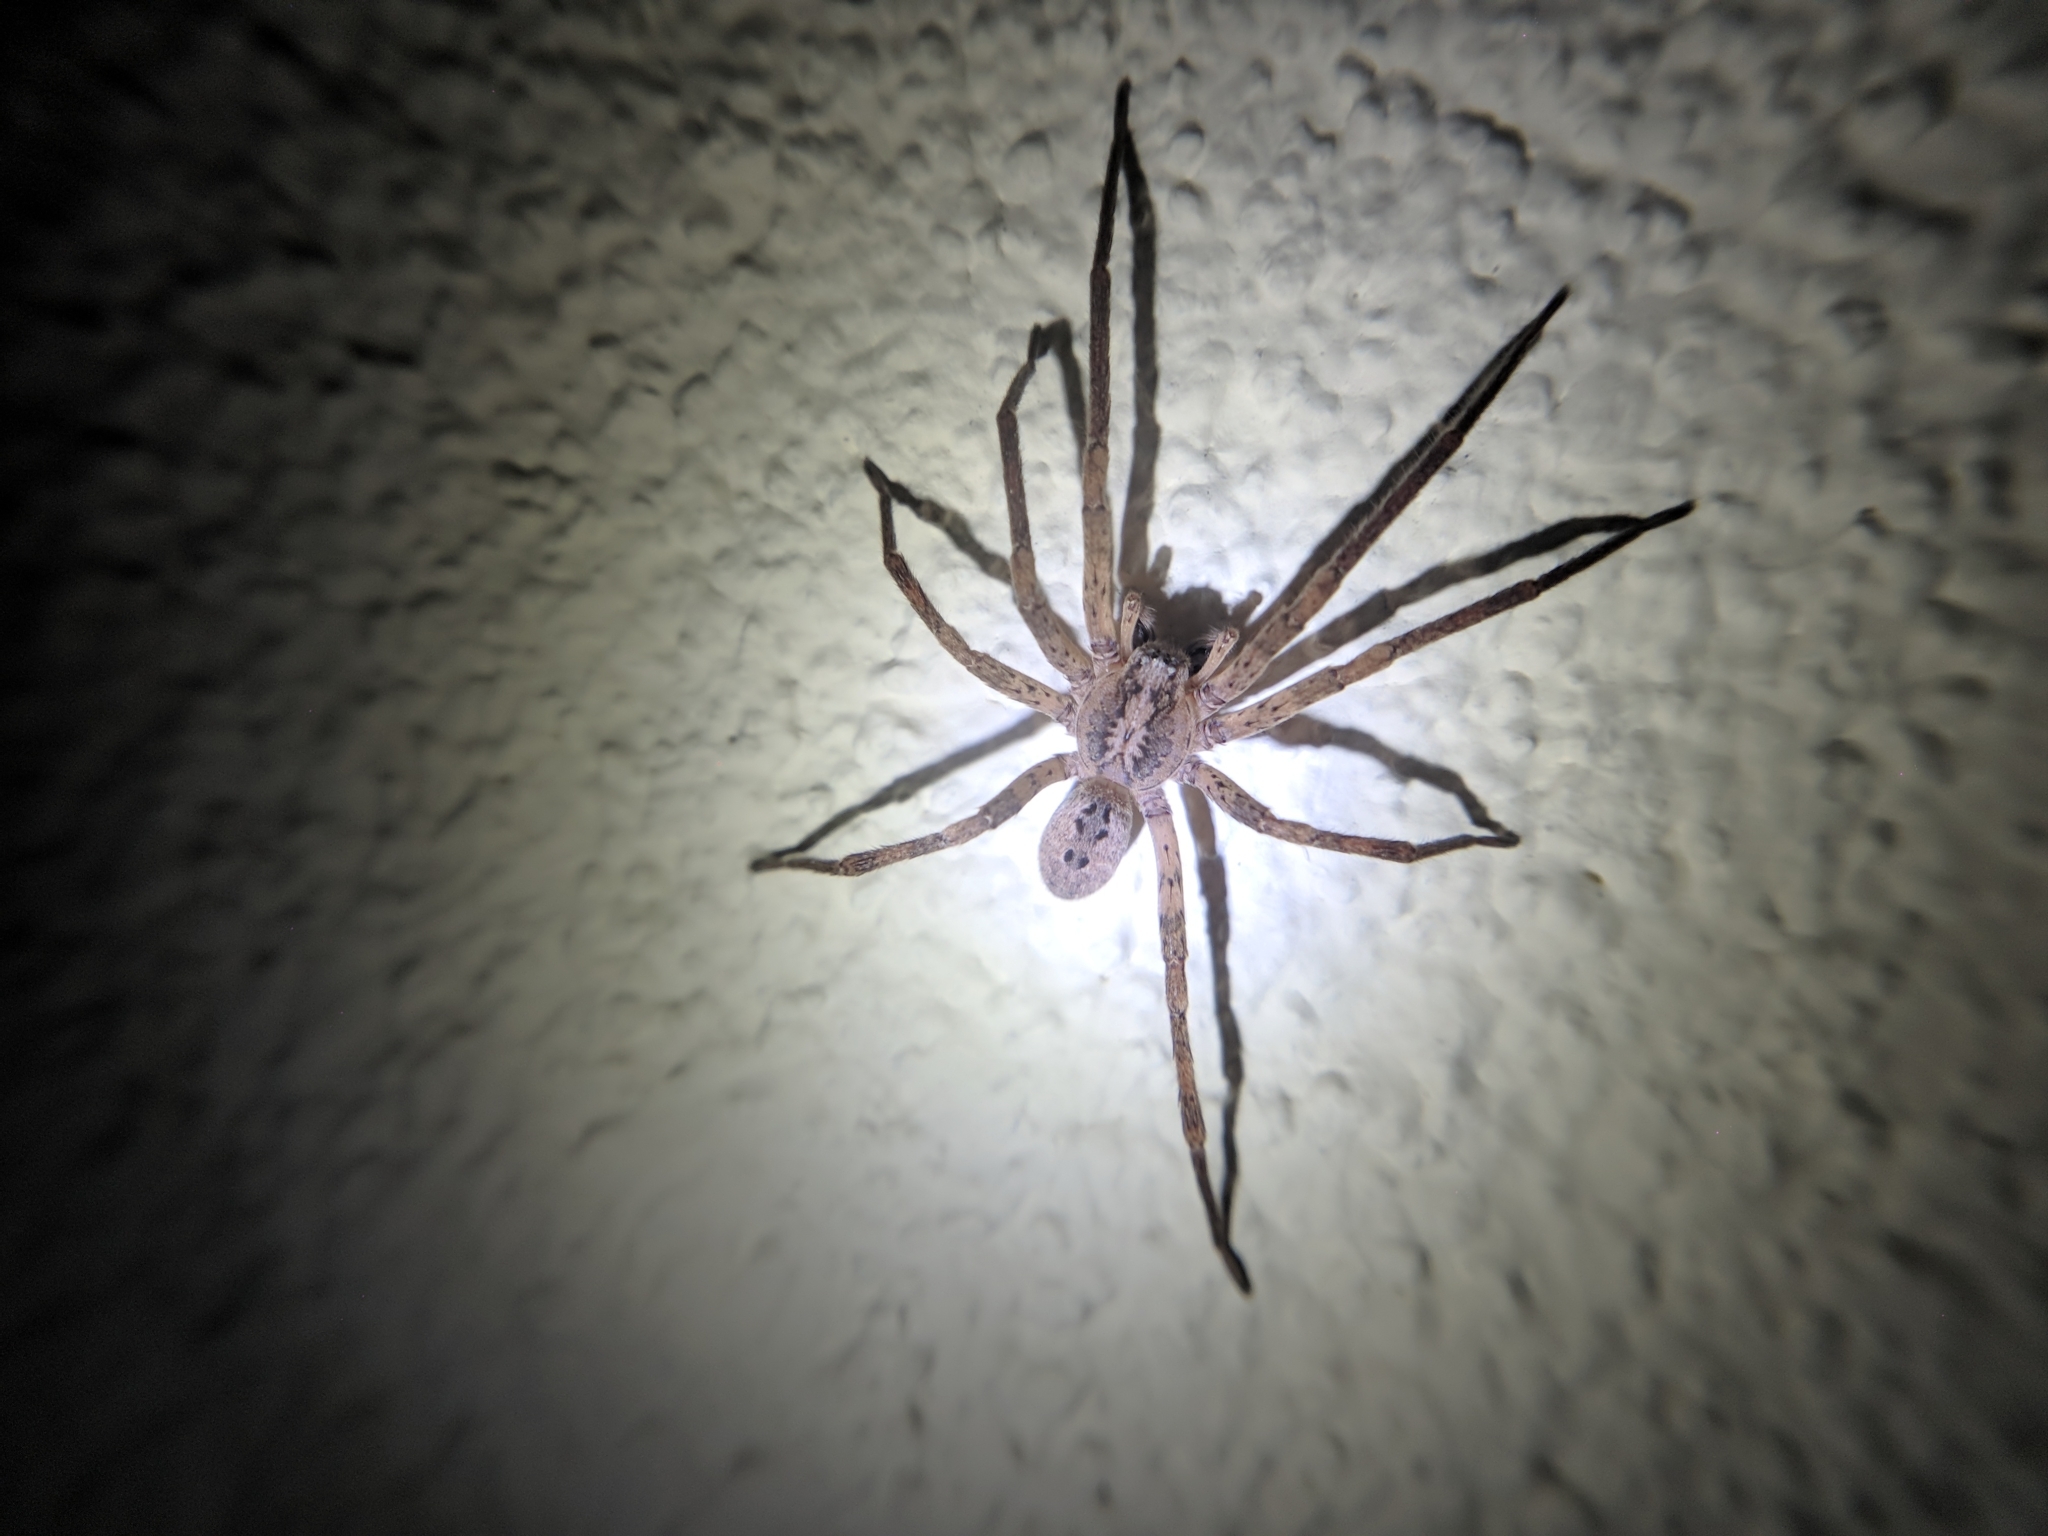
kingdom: Animalia
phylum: Arthropoda
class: Arachnida
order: Araneae
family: Zoropsidae
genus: Zoropsis
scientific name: Zoropsis spinimana
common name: Zoropsid spider
